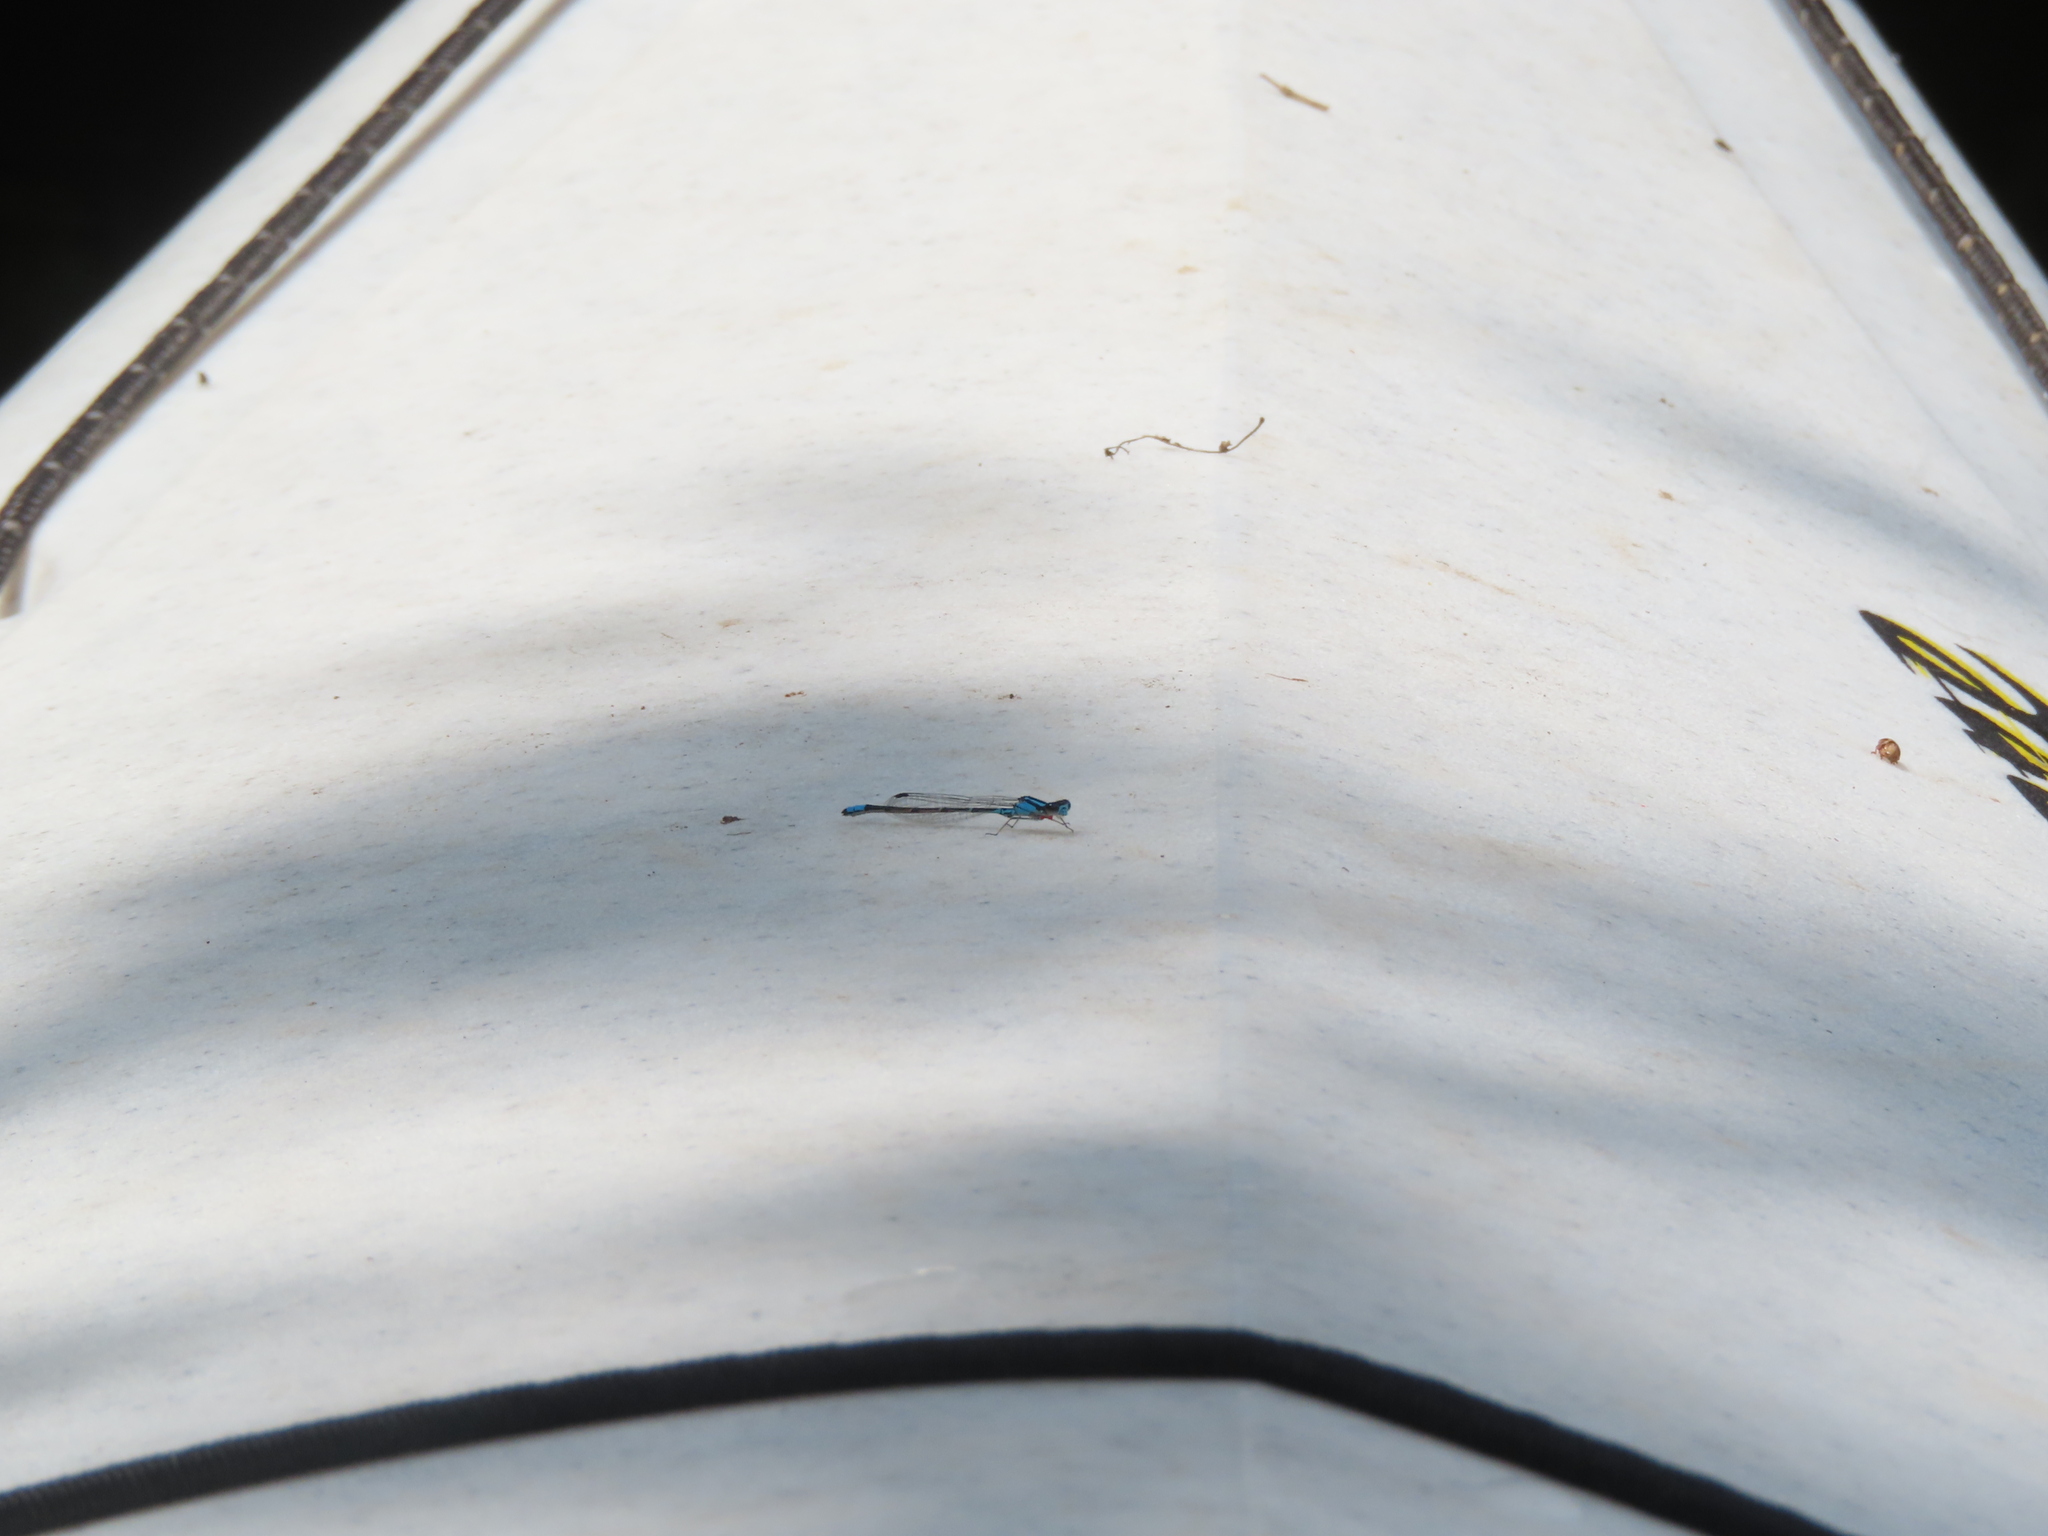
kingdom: Animalia
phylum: Arthropoda
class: Insecta
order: Odonata
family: Coenagrionidae
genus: Enallagma
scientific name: Enallagma geminatum
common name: Skimming bluet
